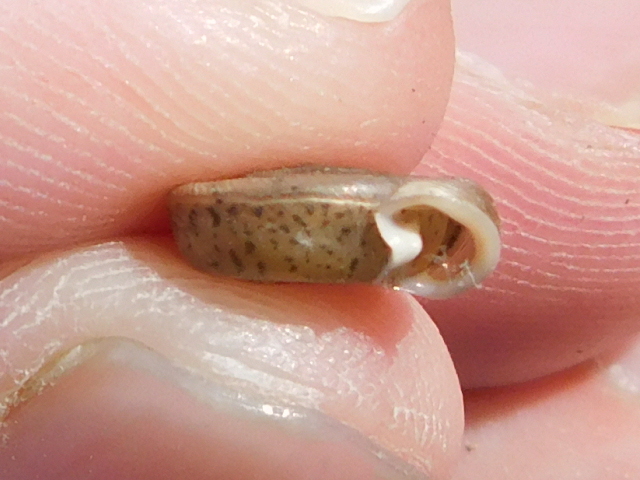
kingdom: Animalia
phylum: Mollusca
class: Gastropoda
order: Stylommatophora
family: Polygyridae
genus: Polygyra
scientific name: Polygyra cereolus
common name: Southern flatcone snail
